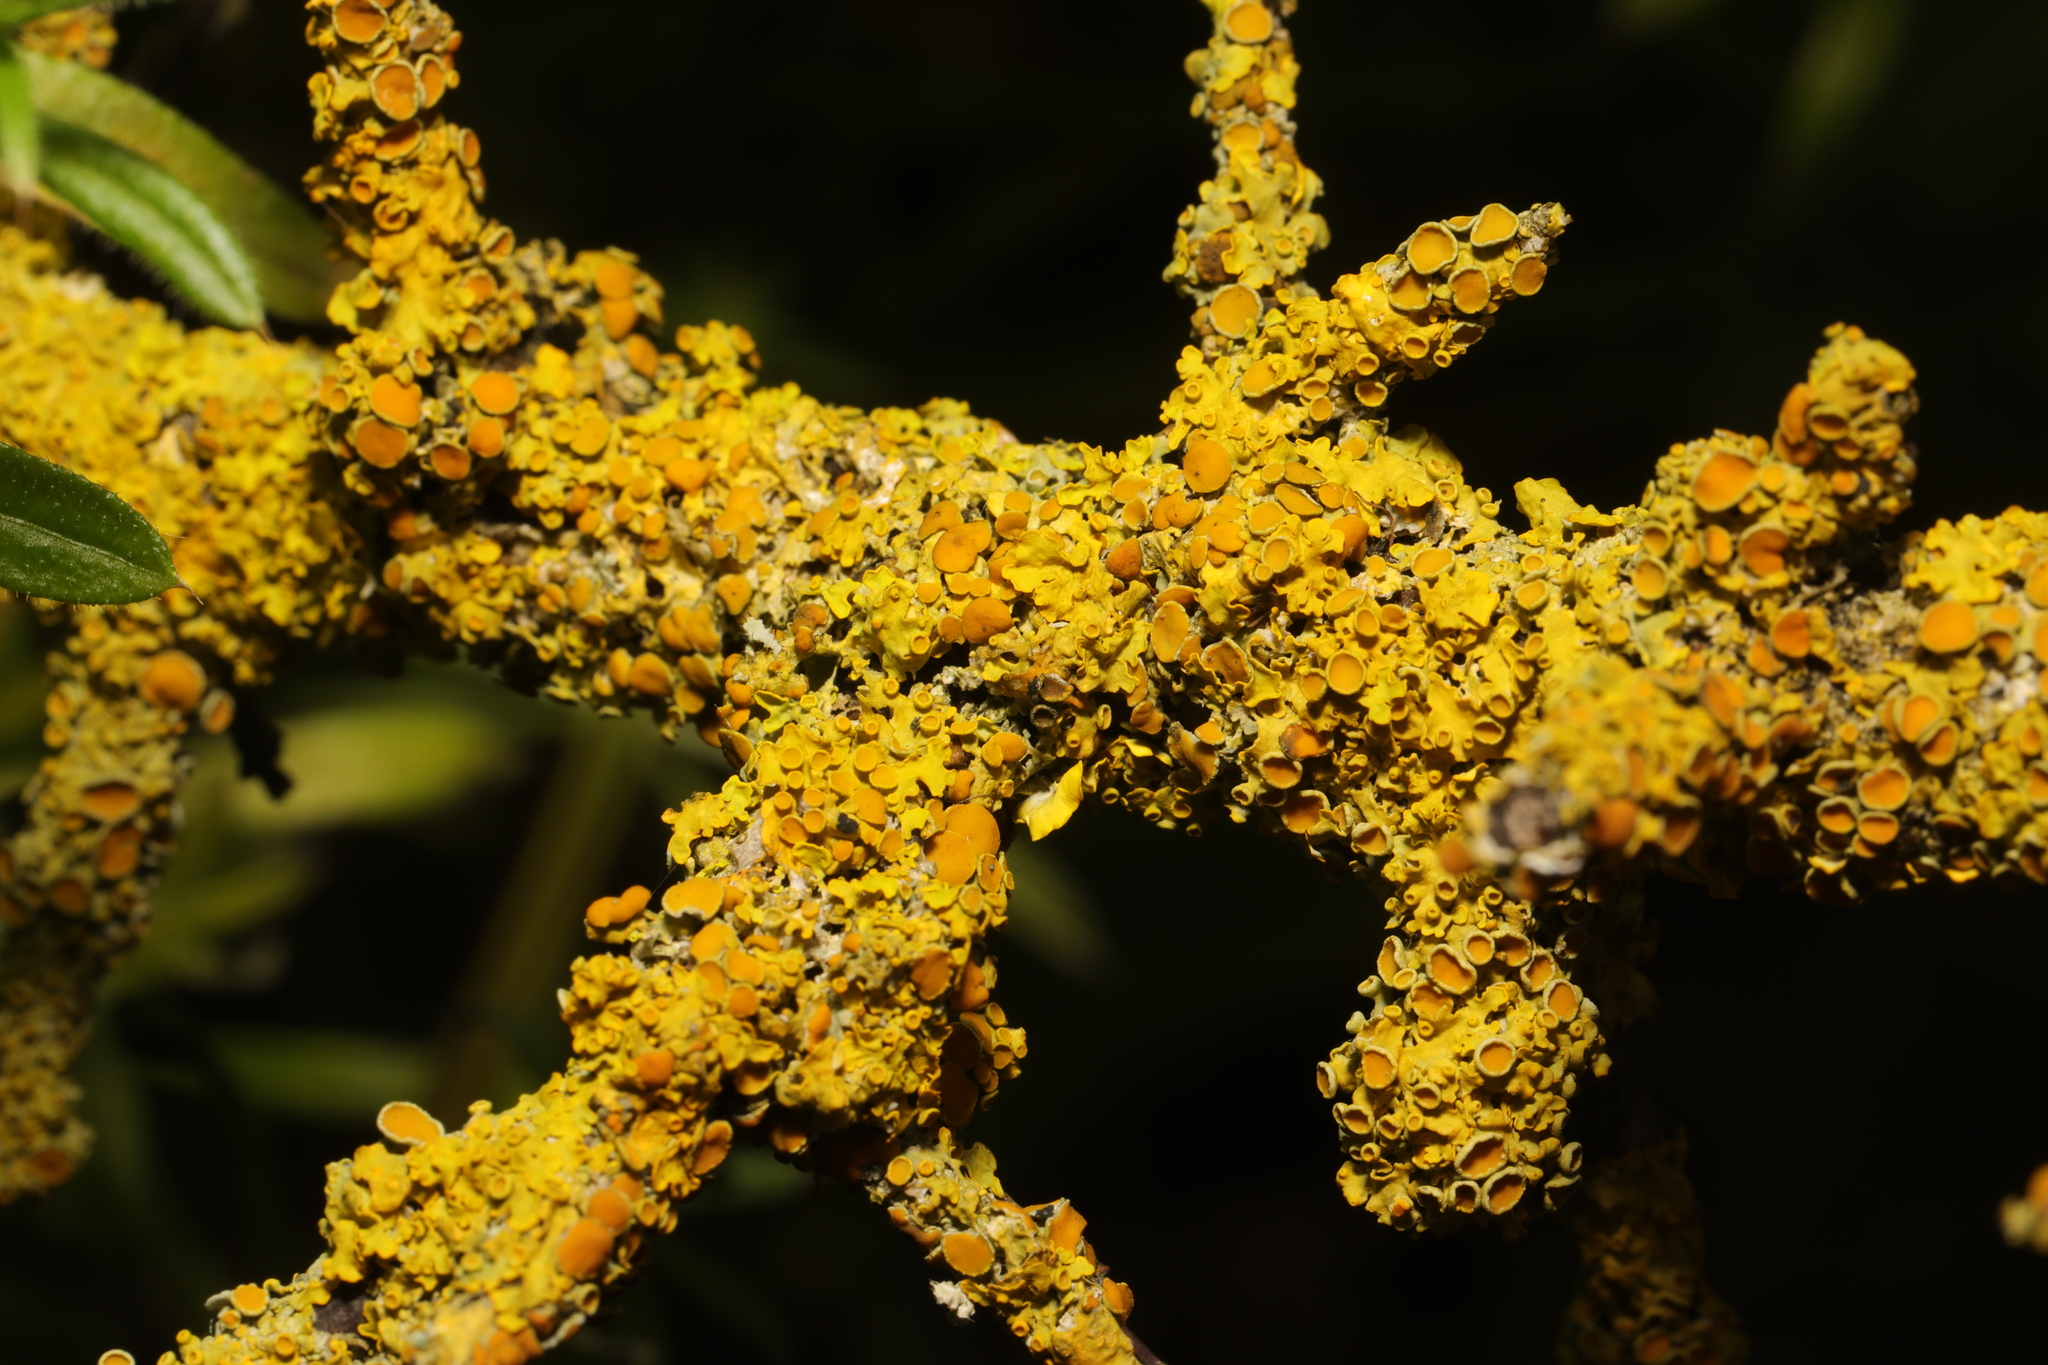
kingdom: Fungi
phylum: Ascomycota
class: Lecanoromycetes
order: Teloschistales
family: Teloschistaceae
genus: Xanthoria
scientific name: Xanthoria parietina
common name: Common orange lichen
